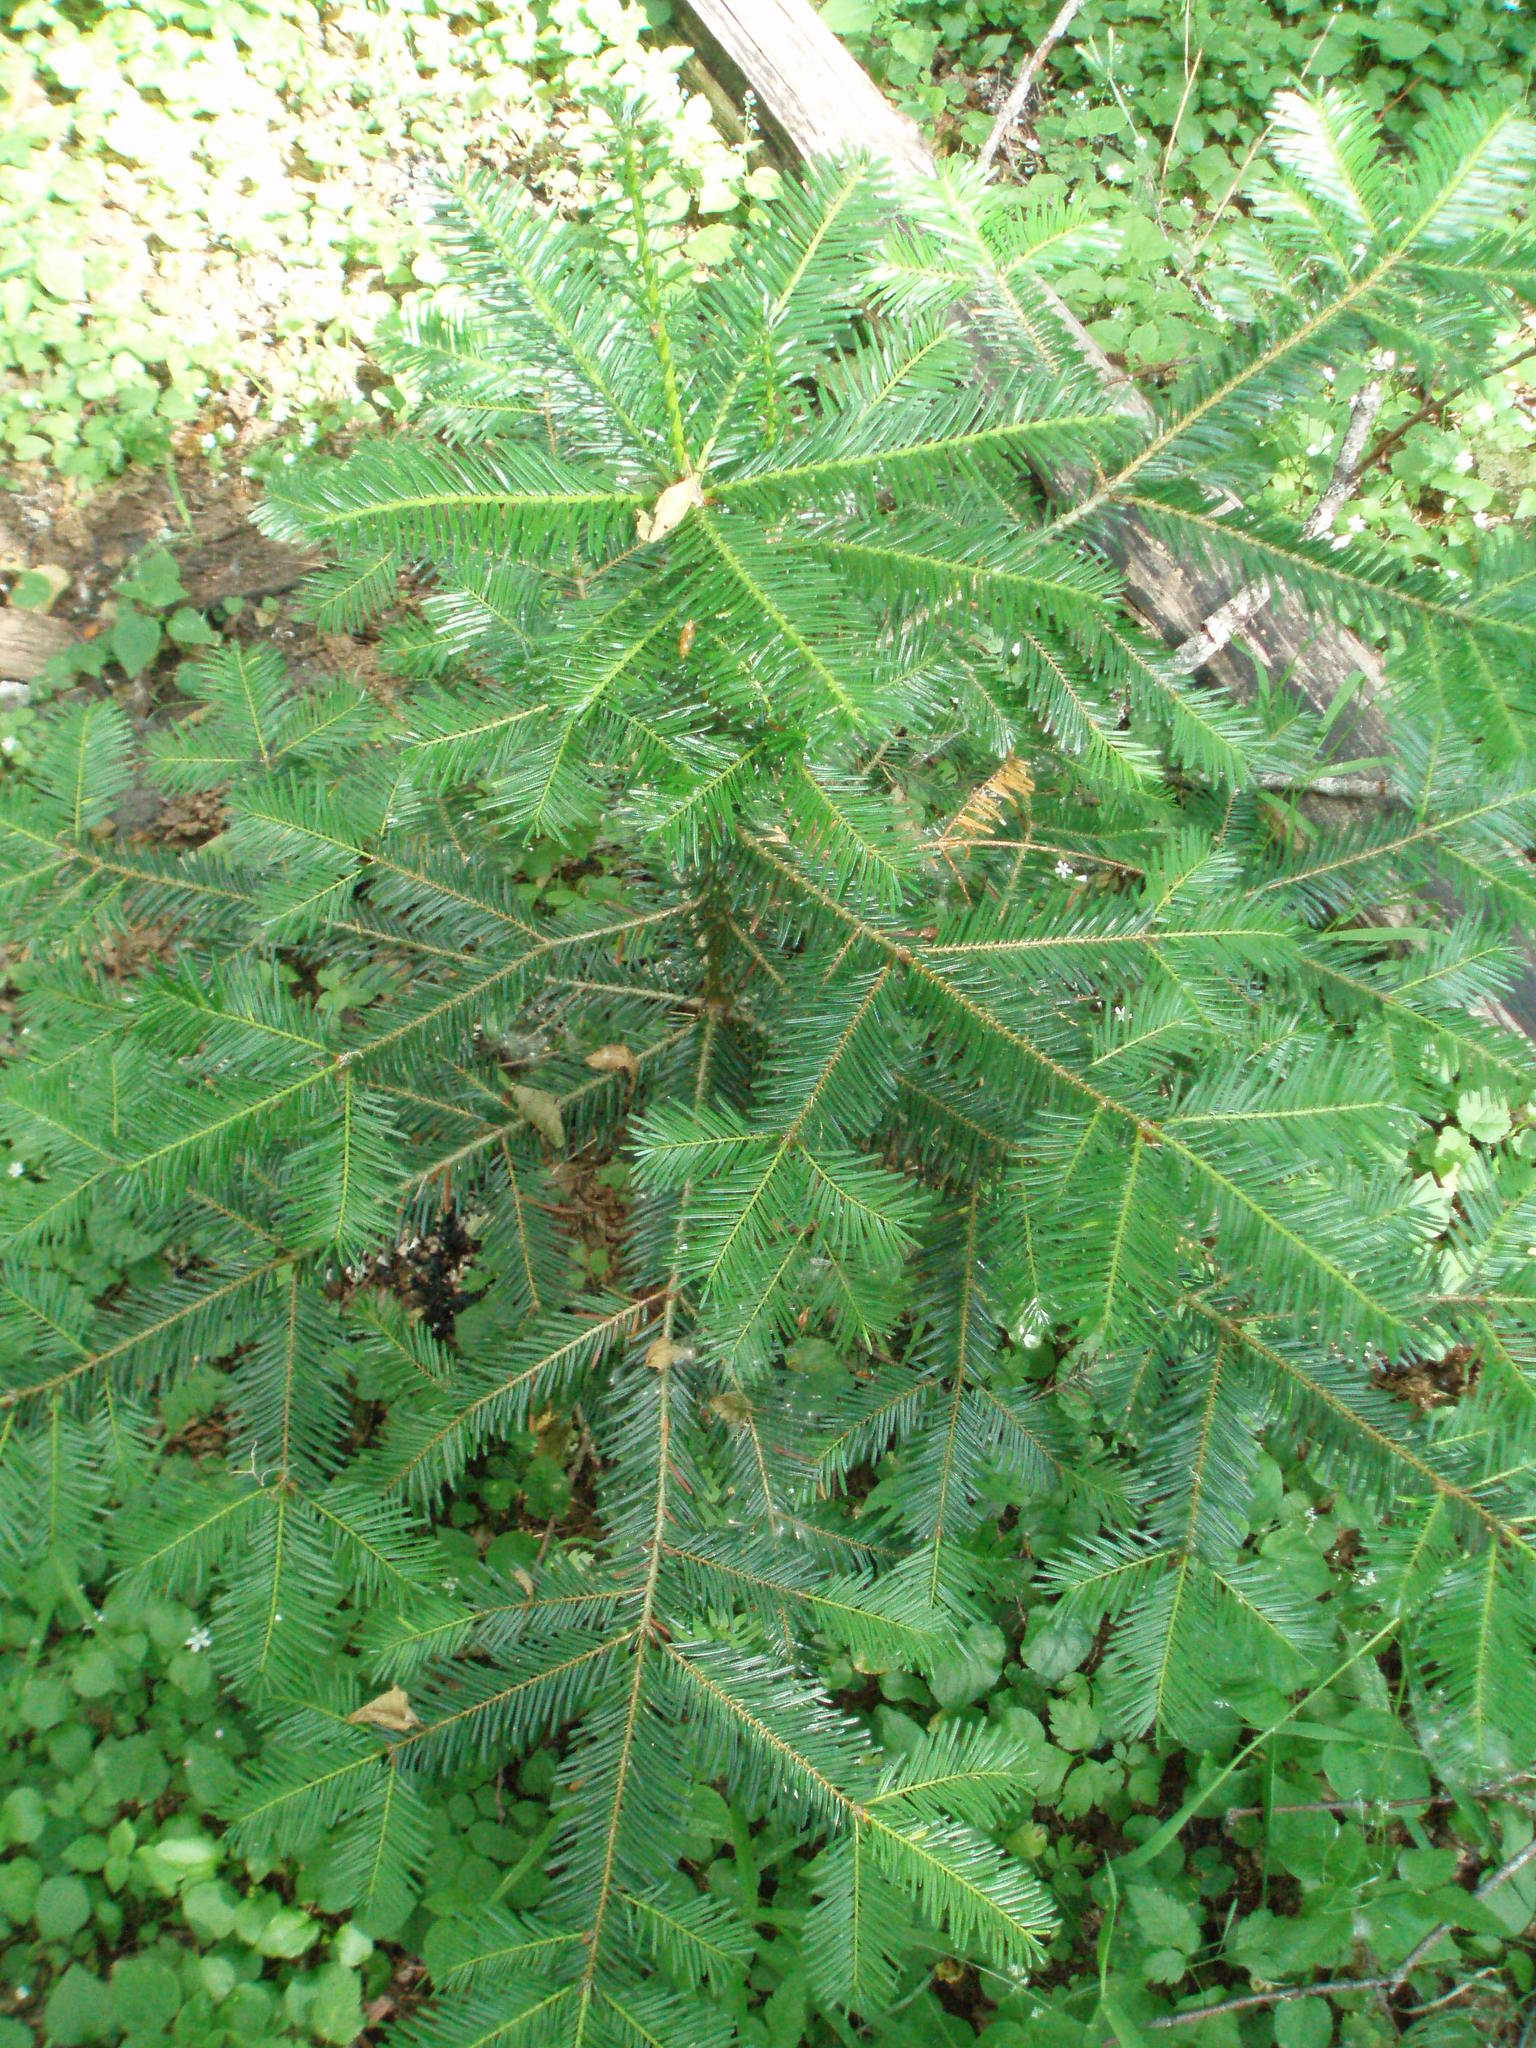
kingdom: Plantae
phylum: Tracheophyta
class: Pinopsida
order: Pinales
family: Pinaceae
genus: Abies
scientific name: Abies grandis
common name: Giant fir
